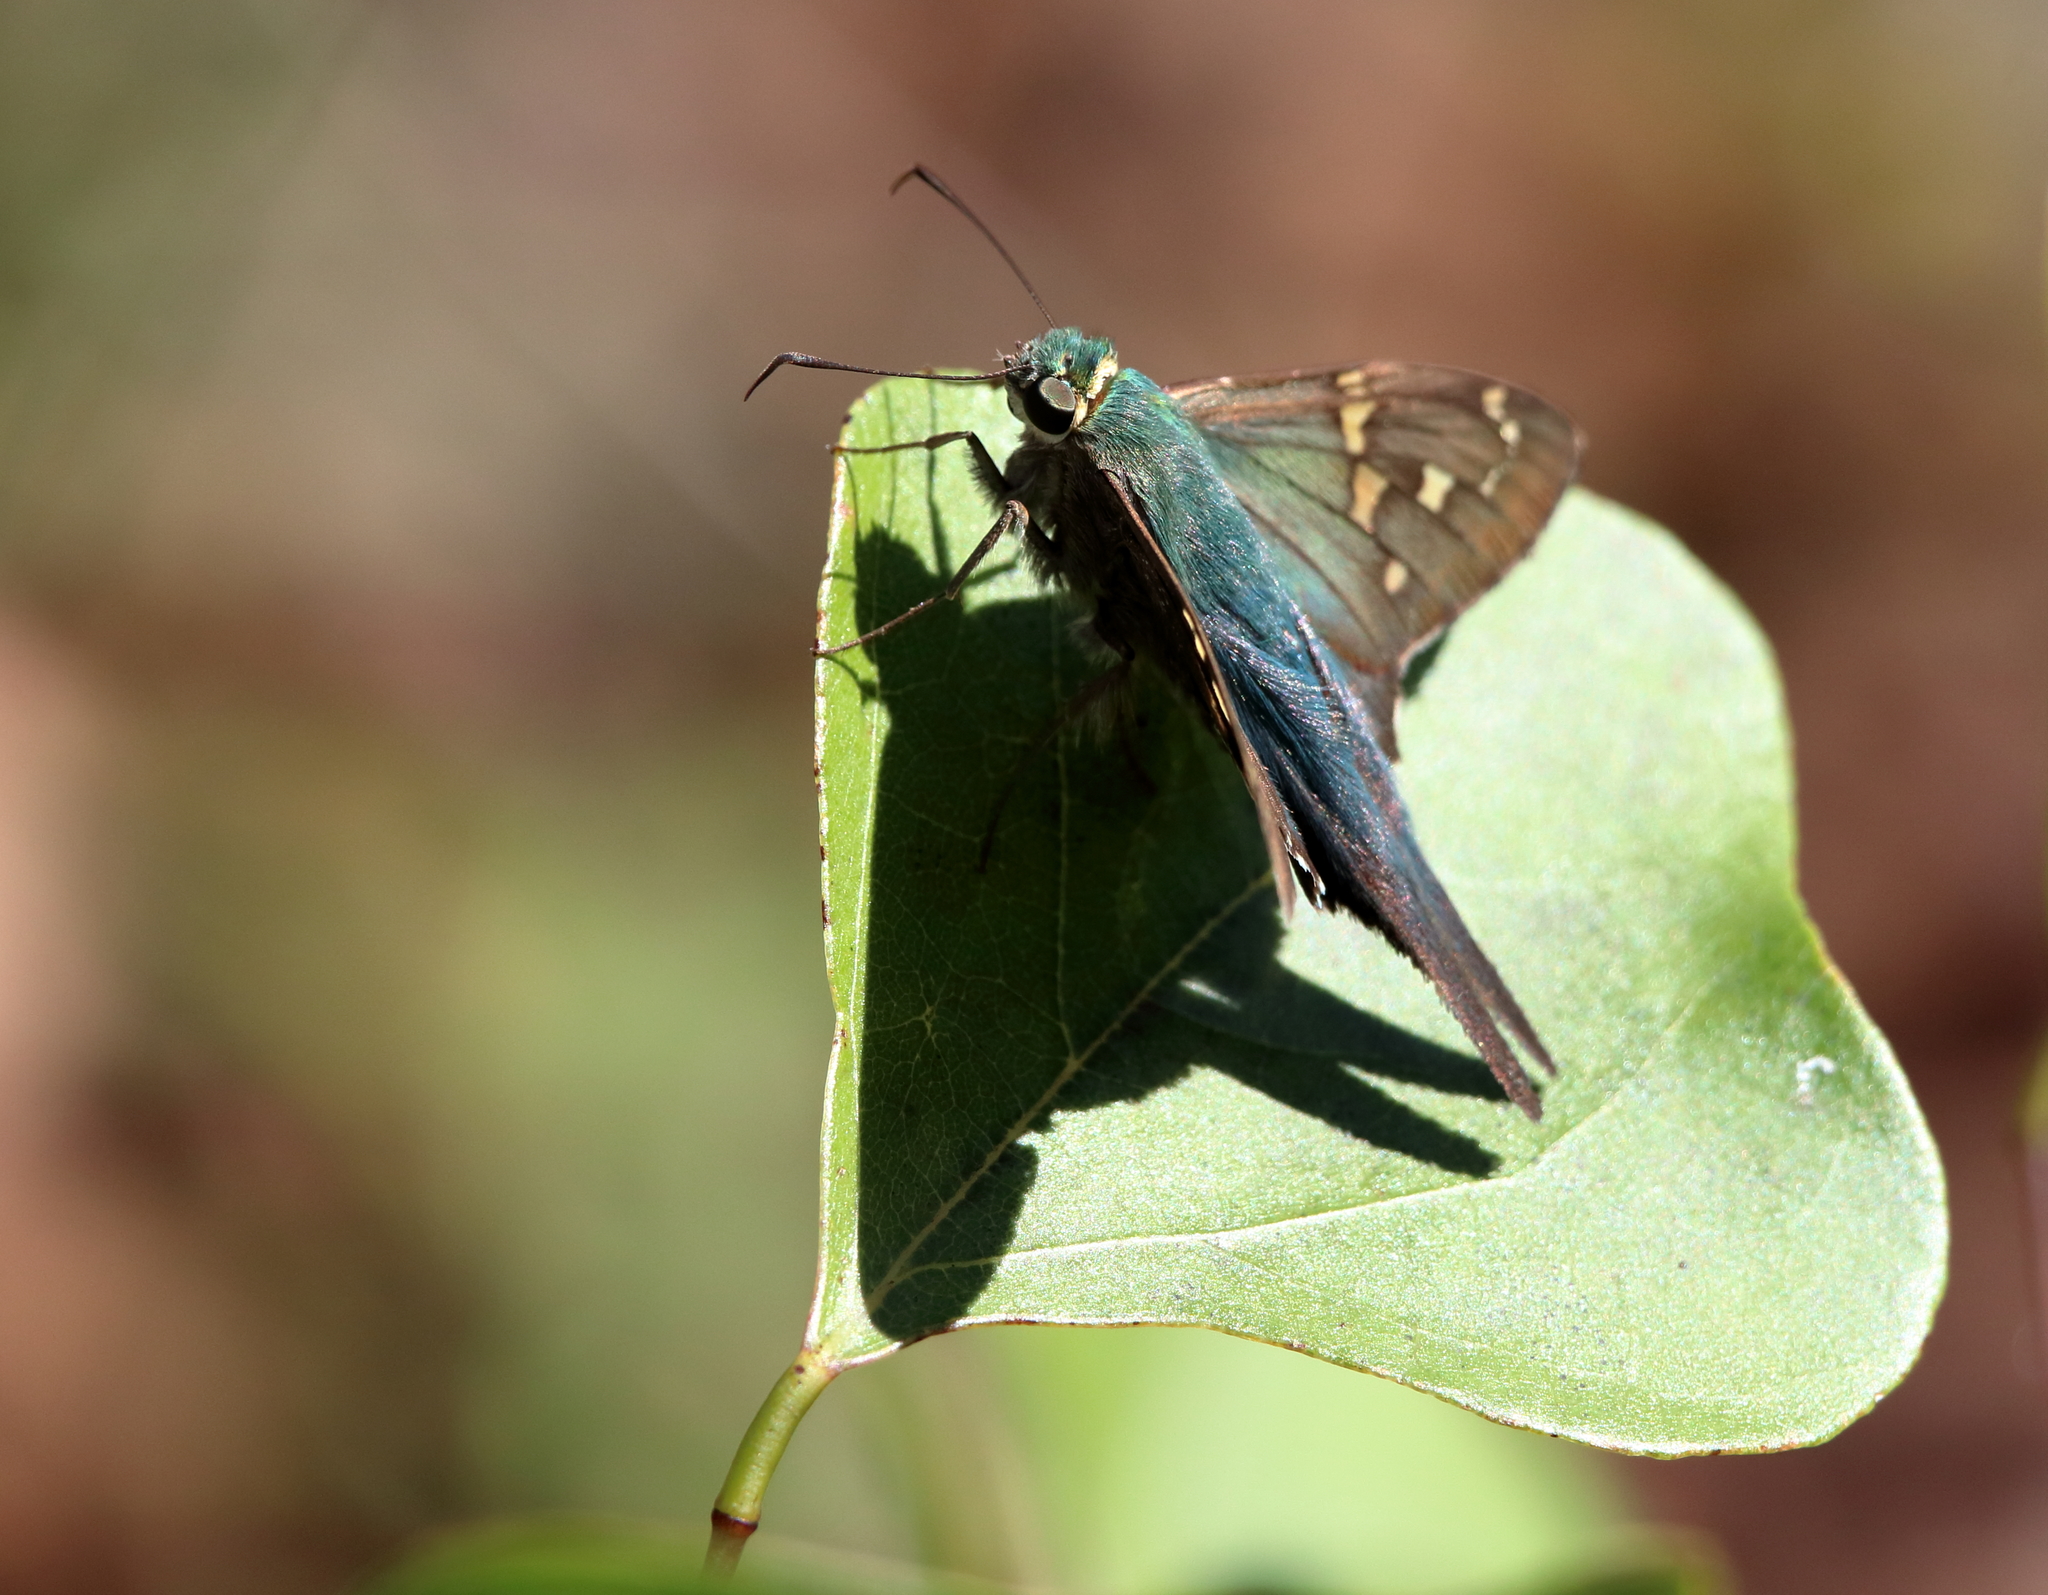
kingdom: Animalia
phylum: Arthropoda
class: Insecta
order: Lepidoptera
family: Hesperiidae
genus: Urbanus
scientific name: Urbanus proteus
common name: Long-tailed skipper
